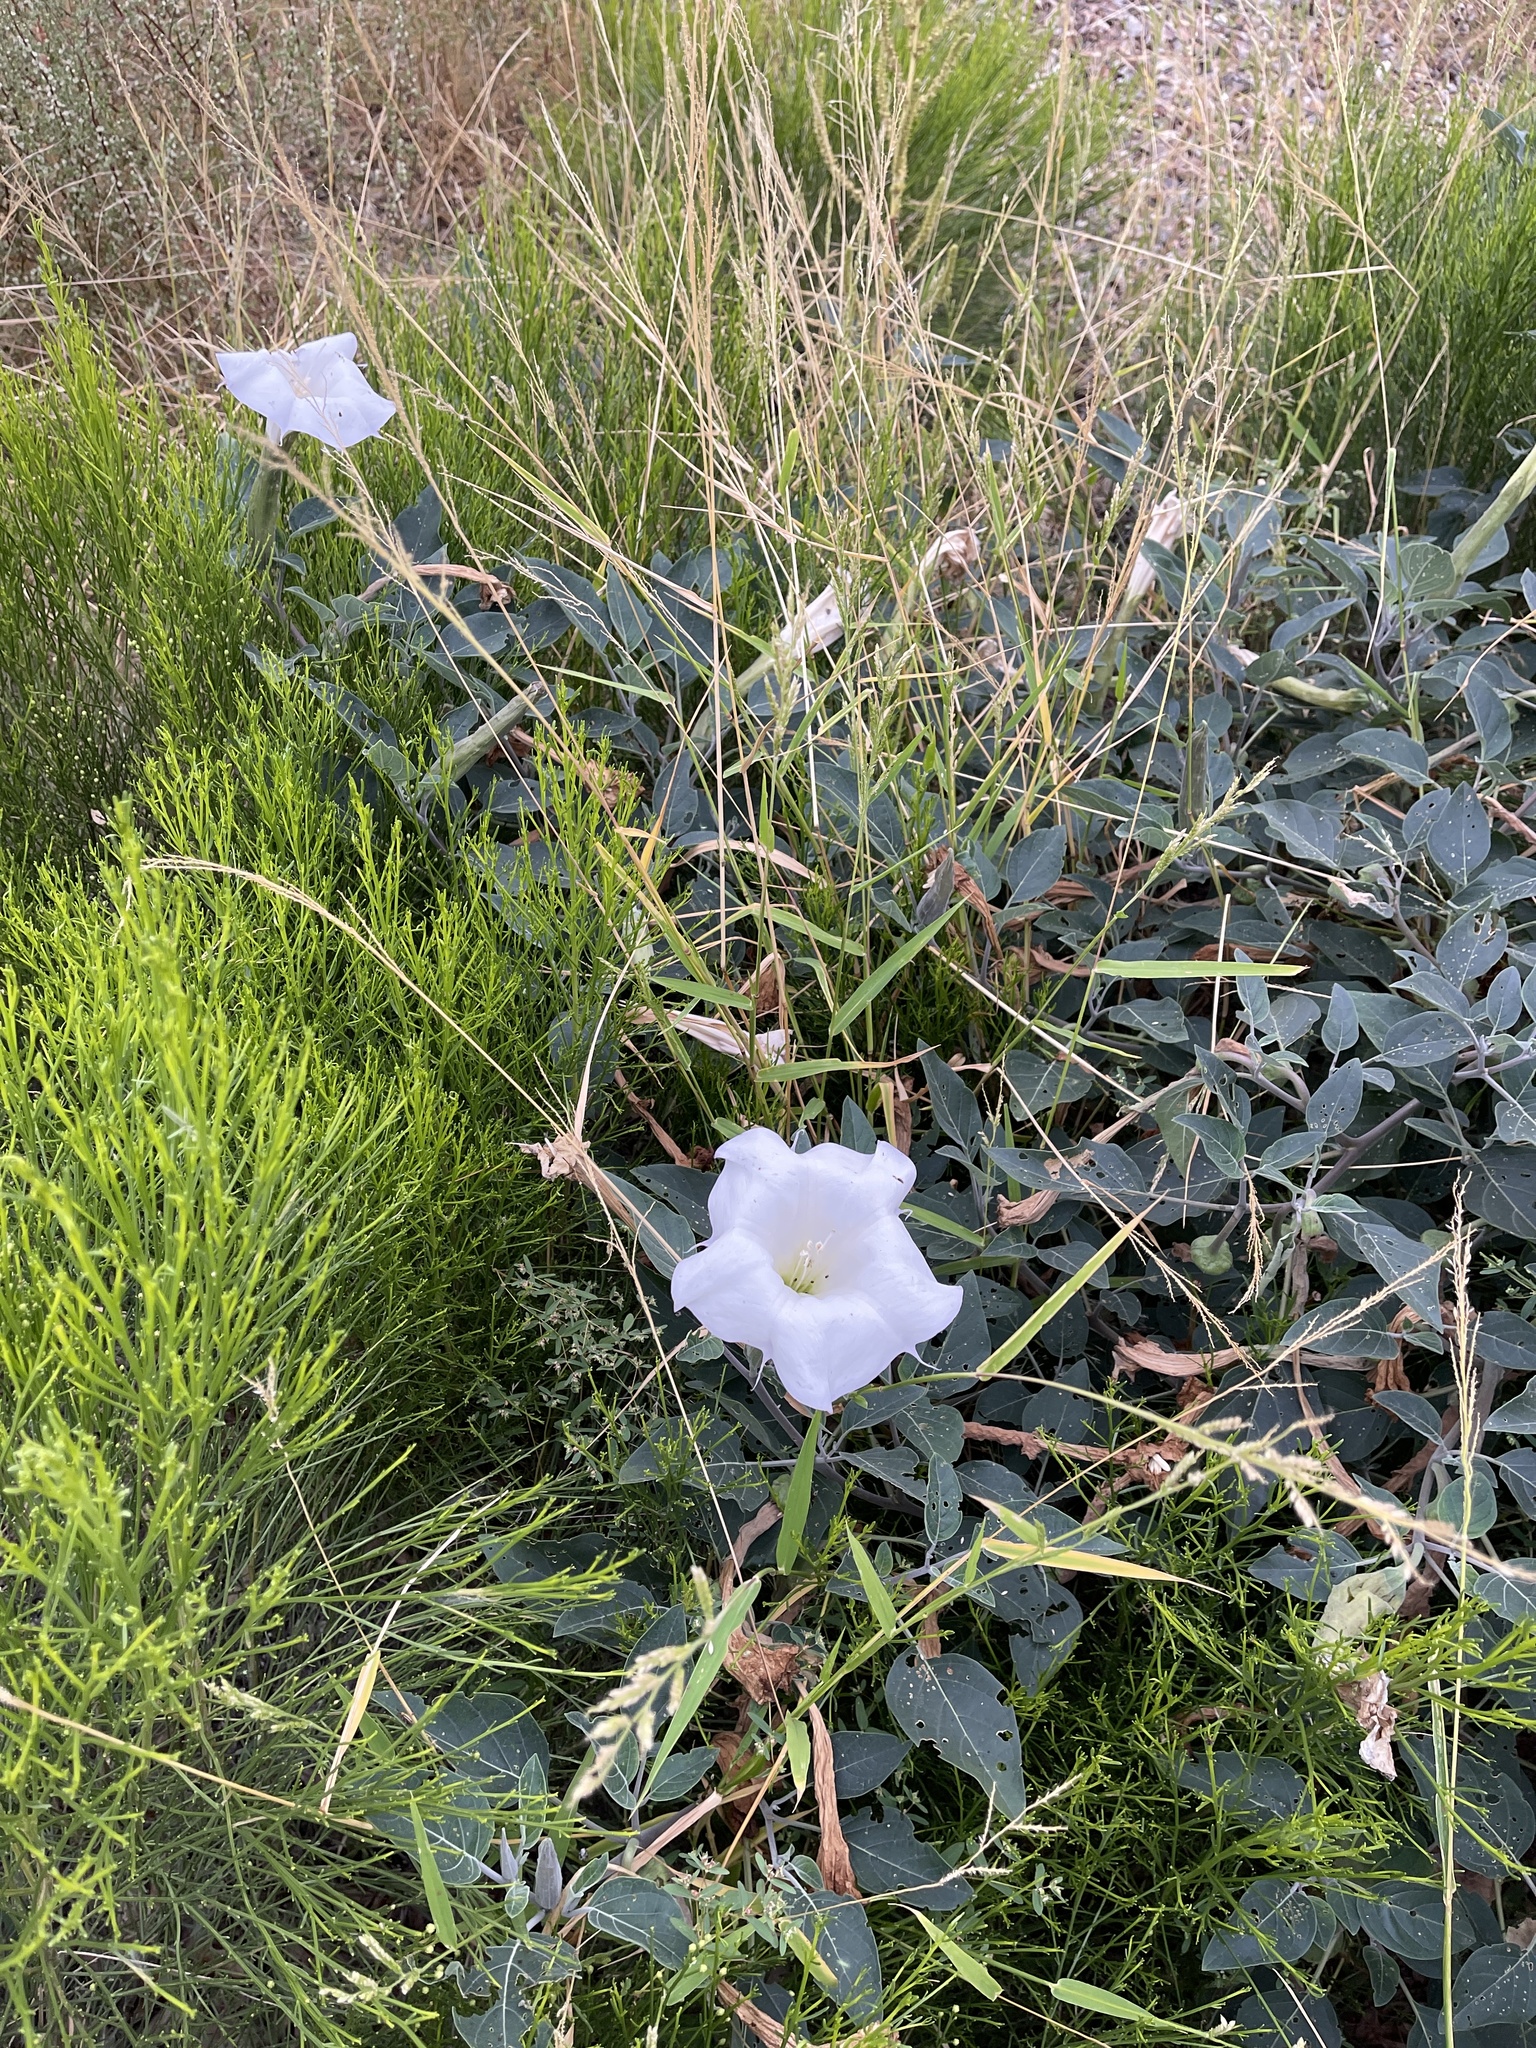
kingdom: Plantae
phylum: Tracheophyta
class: Magnoliopsida
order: Solanales
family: Solanaceae
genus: Datura
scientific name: Datura wrightii
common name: Sacred thorn-apple
